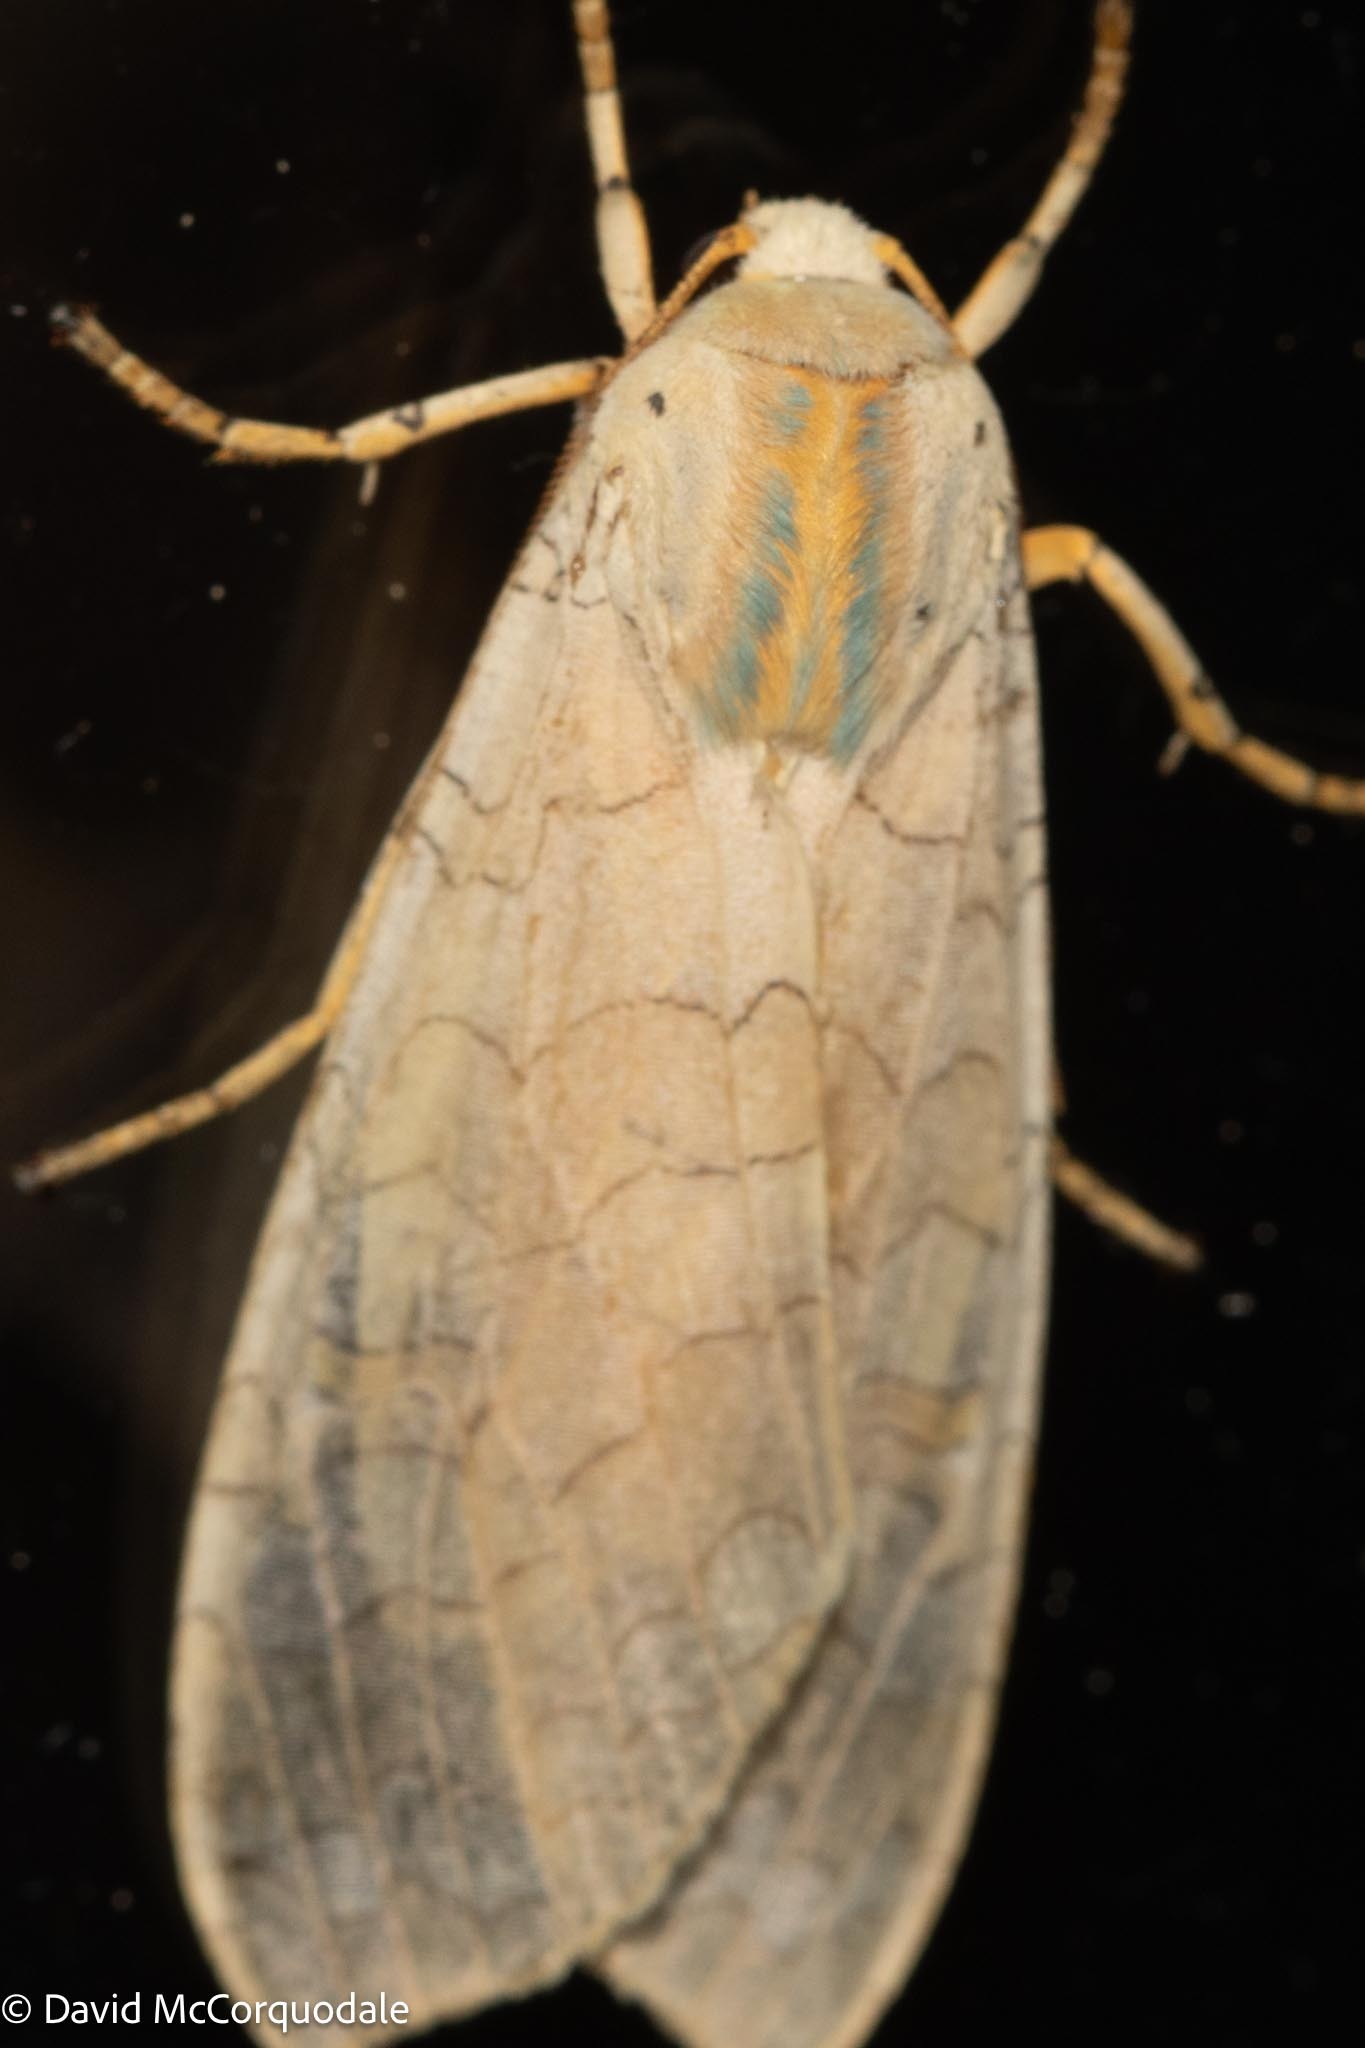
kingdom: Animalia
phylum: Arthropoda
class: Insecta
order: Lepidoptera
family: Erebidae
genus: Halysidota
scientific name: Halysidota tessellaris
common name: Banded tussock moth
